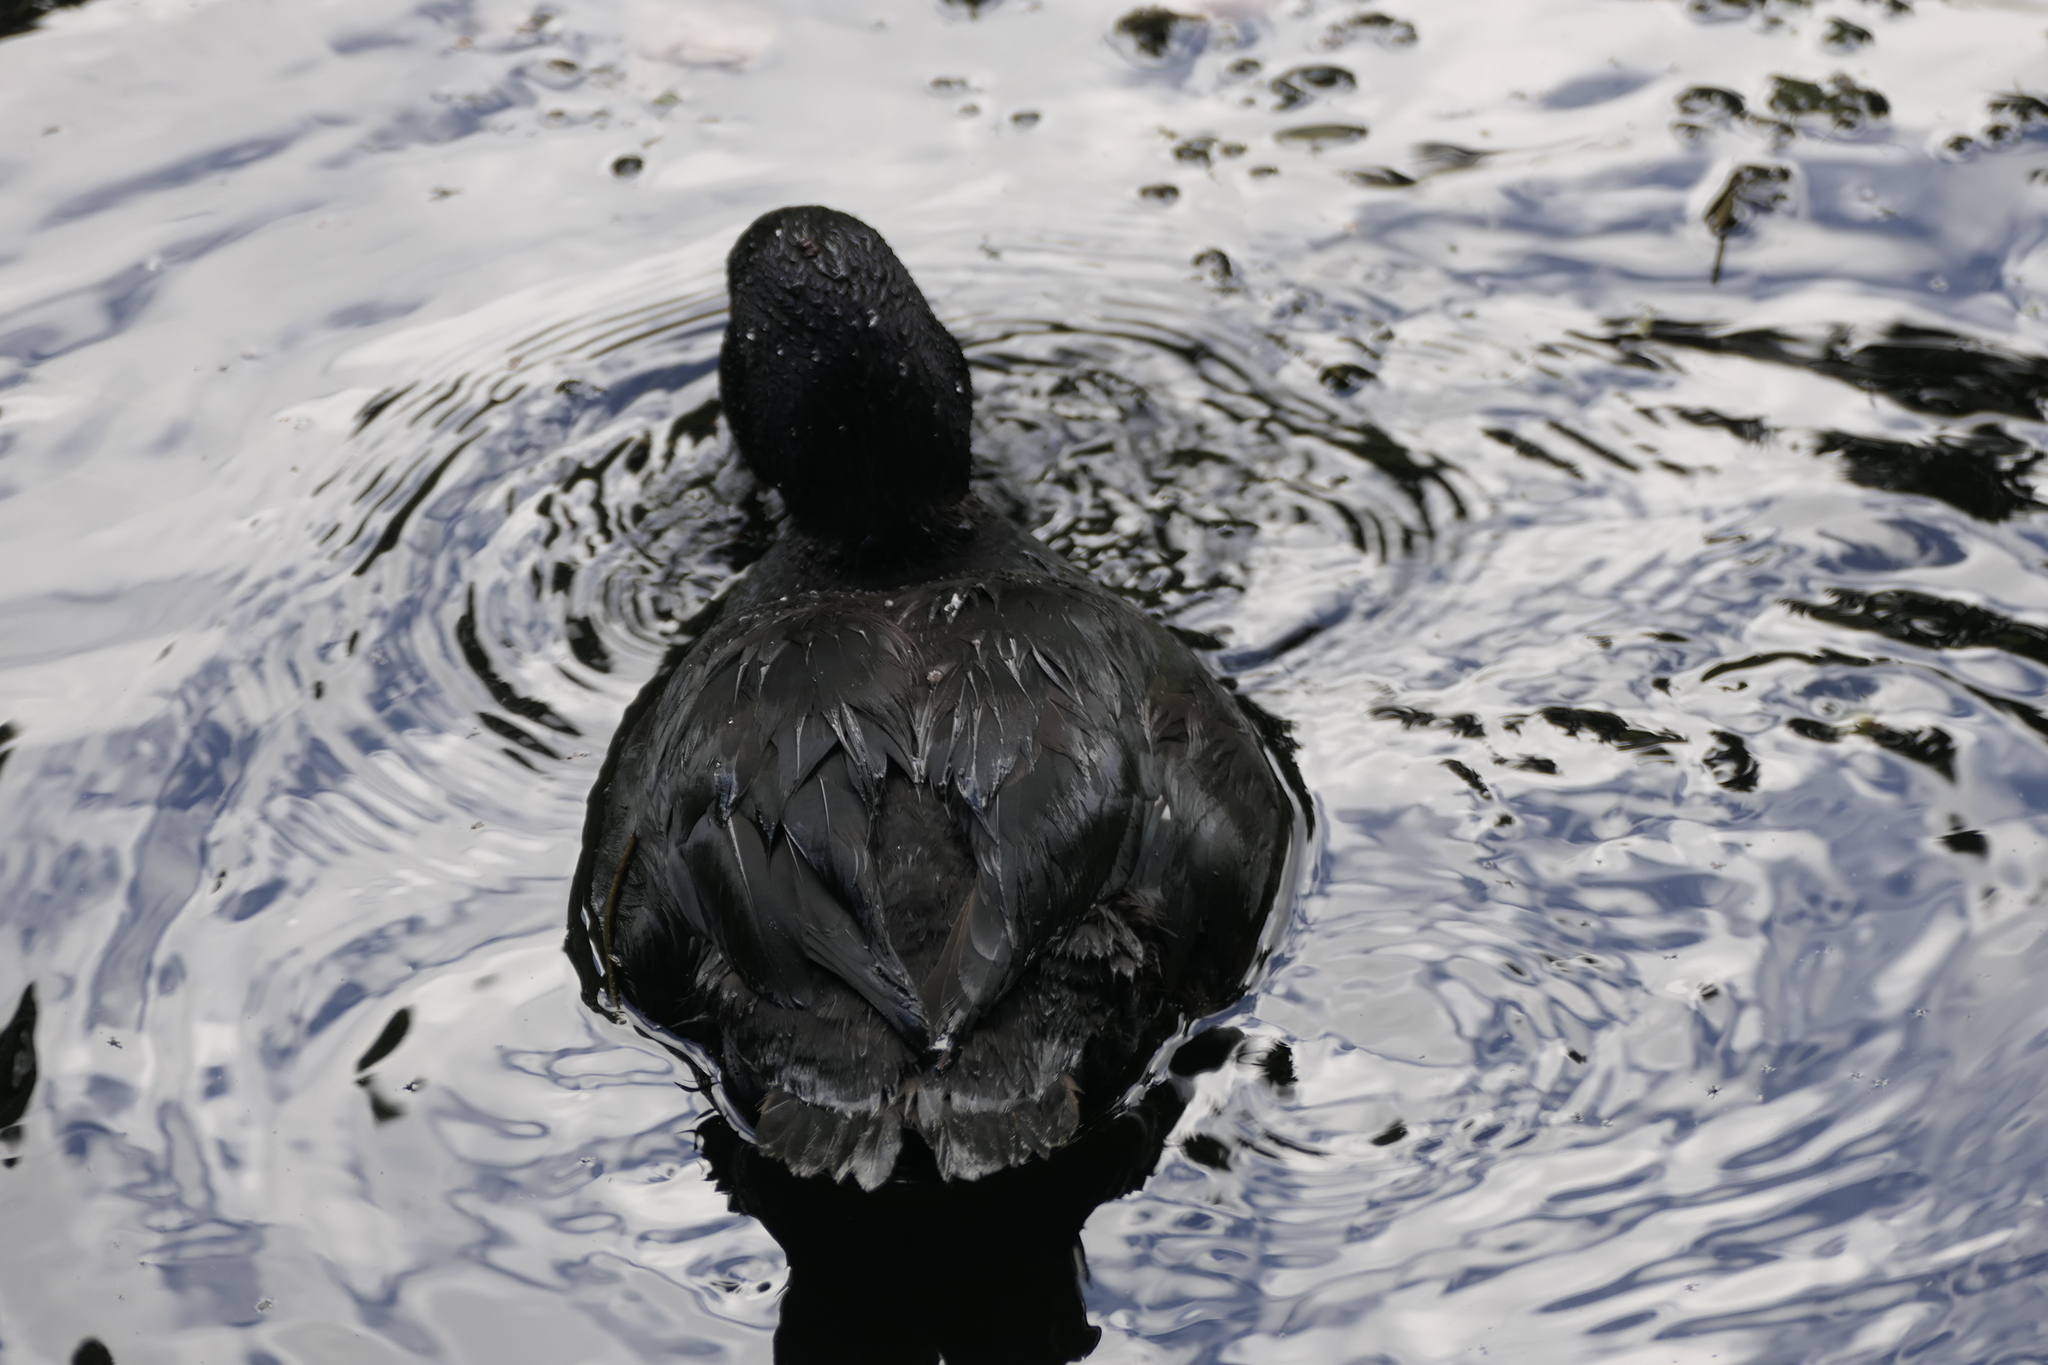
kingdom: Animalia
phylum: Chordata
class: Aves
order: Anseriformes
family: Anatidae
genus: Aythya
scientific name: Aythya novaeseelandiae
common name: New zealand scaup
